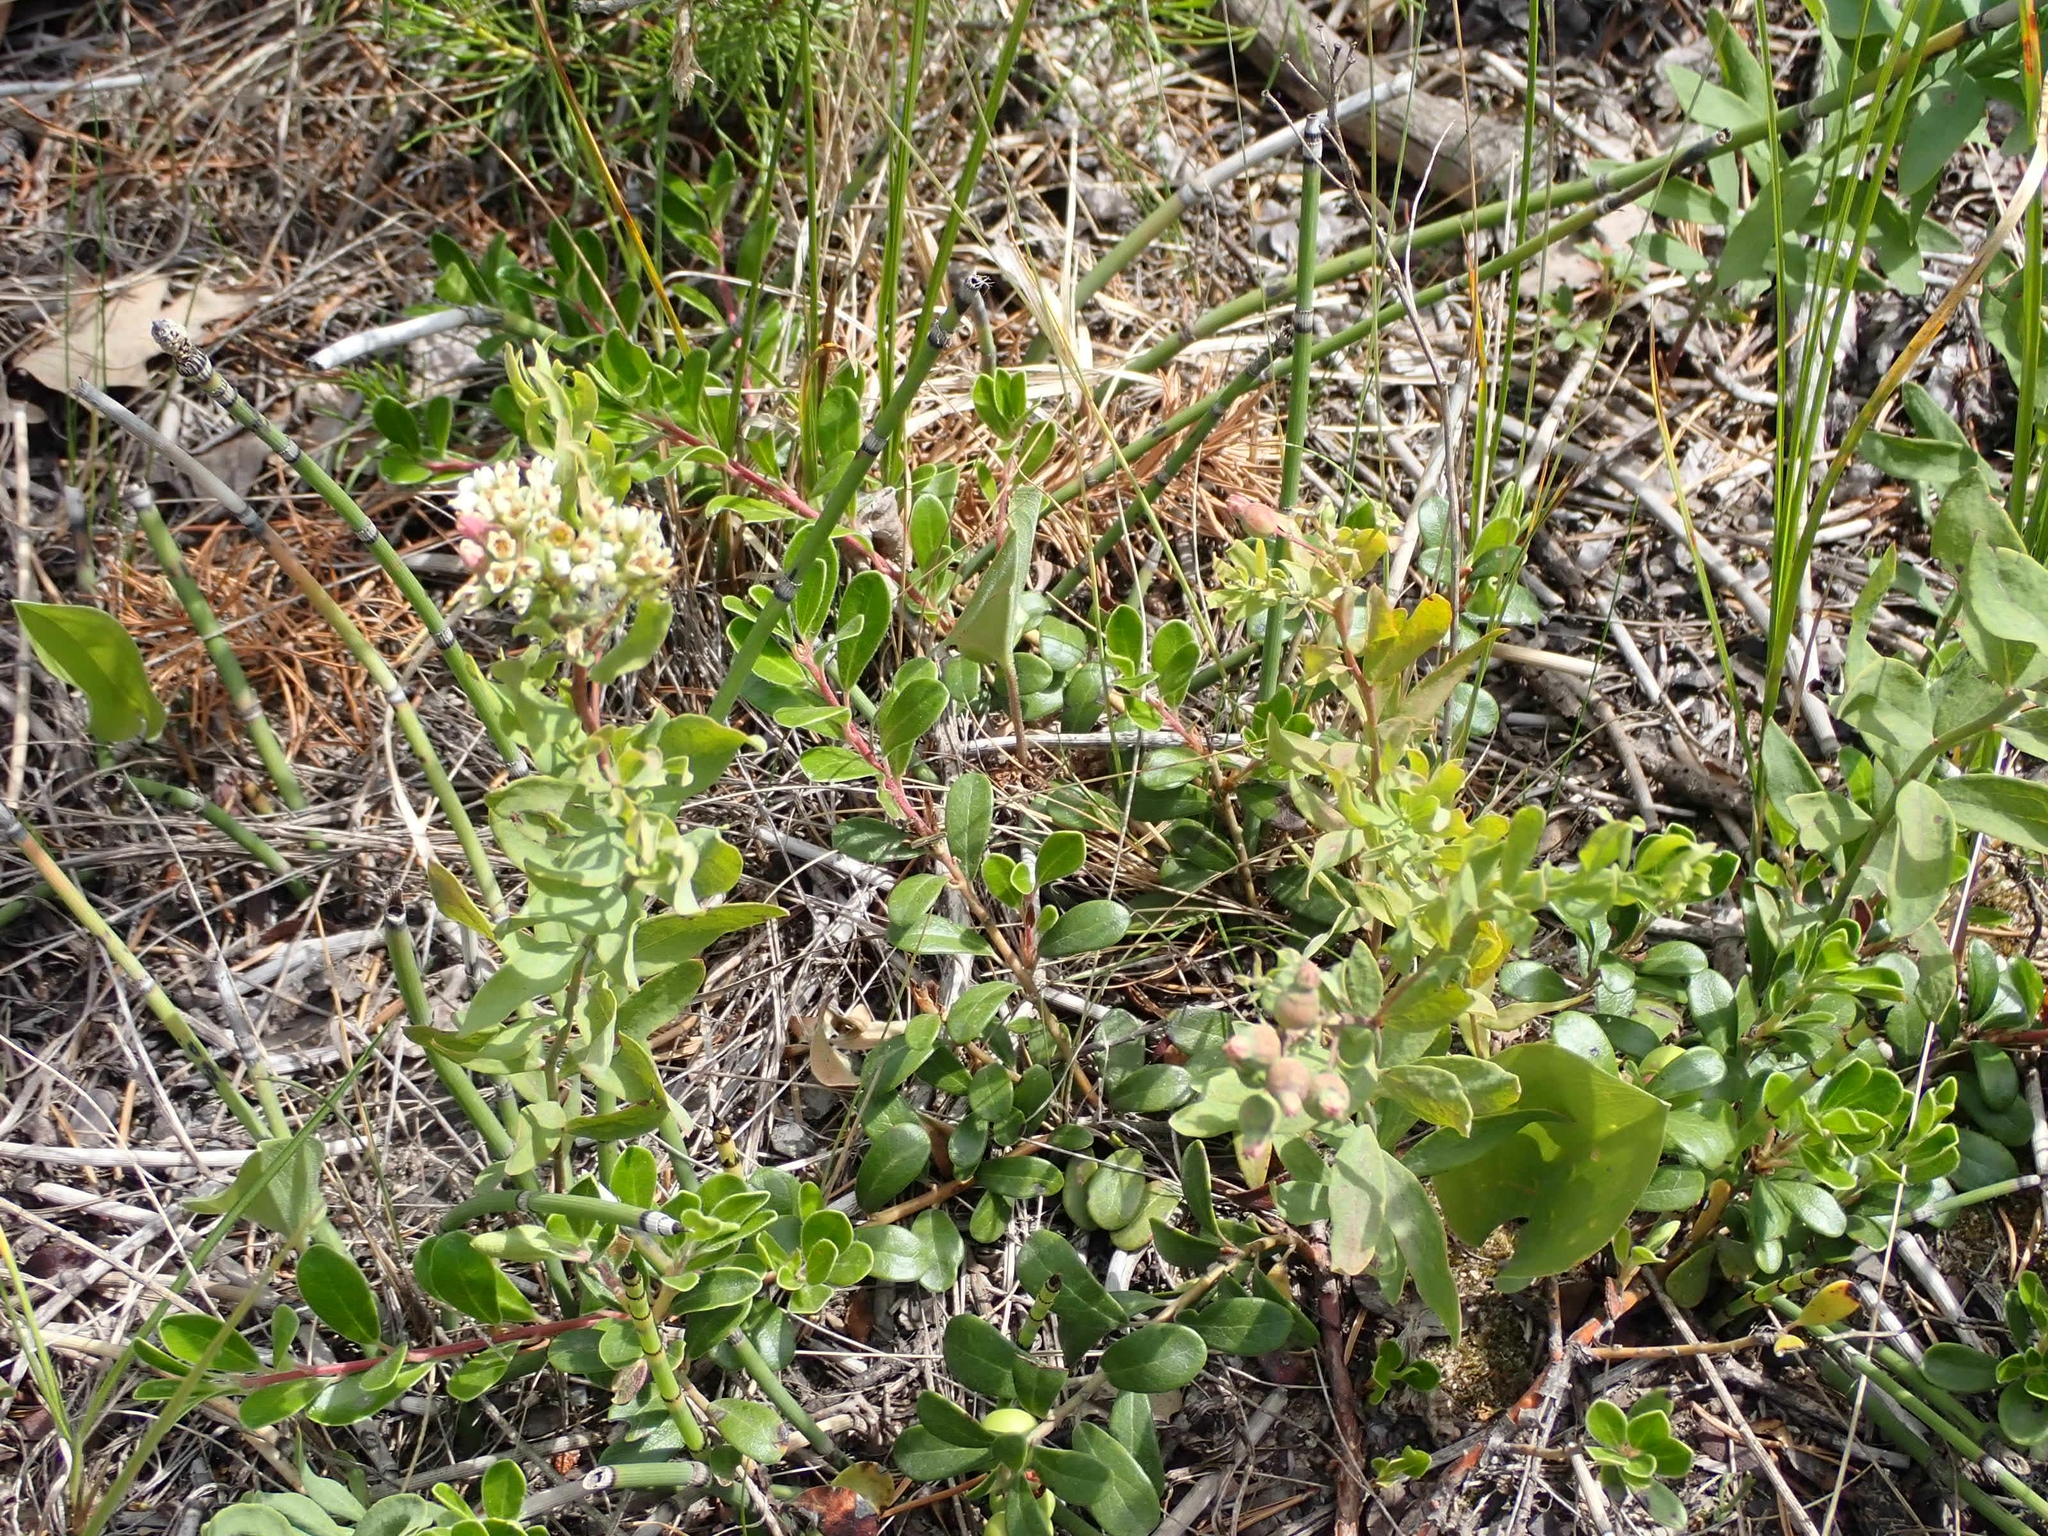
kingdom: Plantae
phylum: Tracheophyta
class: Magnoliopsida
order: Santalales
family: Comandraceae
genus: Comandra
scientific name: Comandra umbellata
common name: Bastard toadflax
